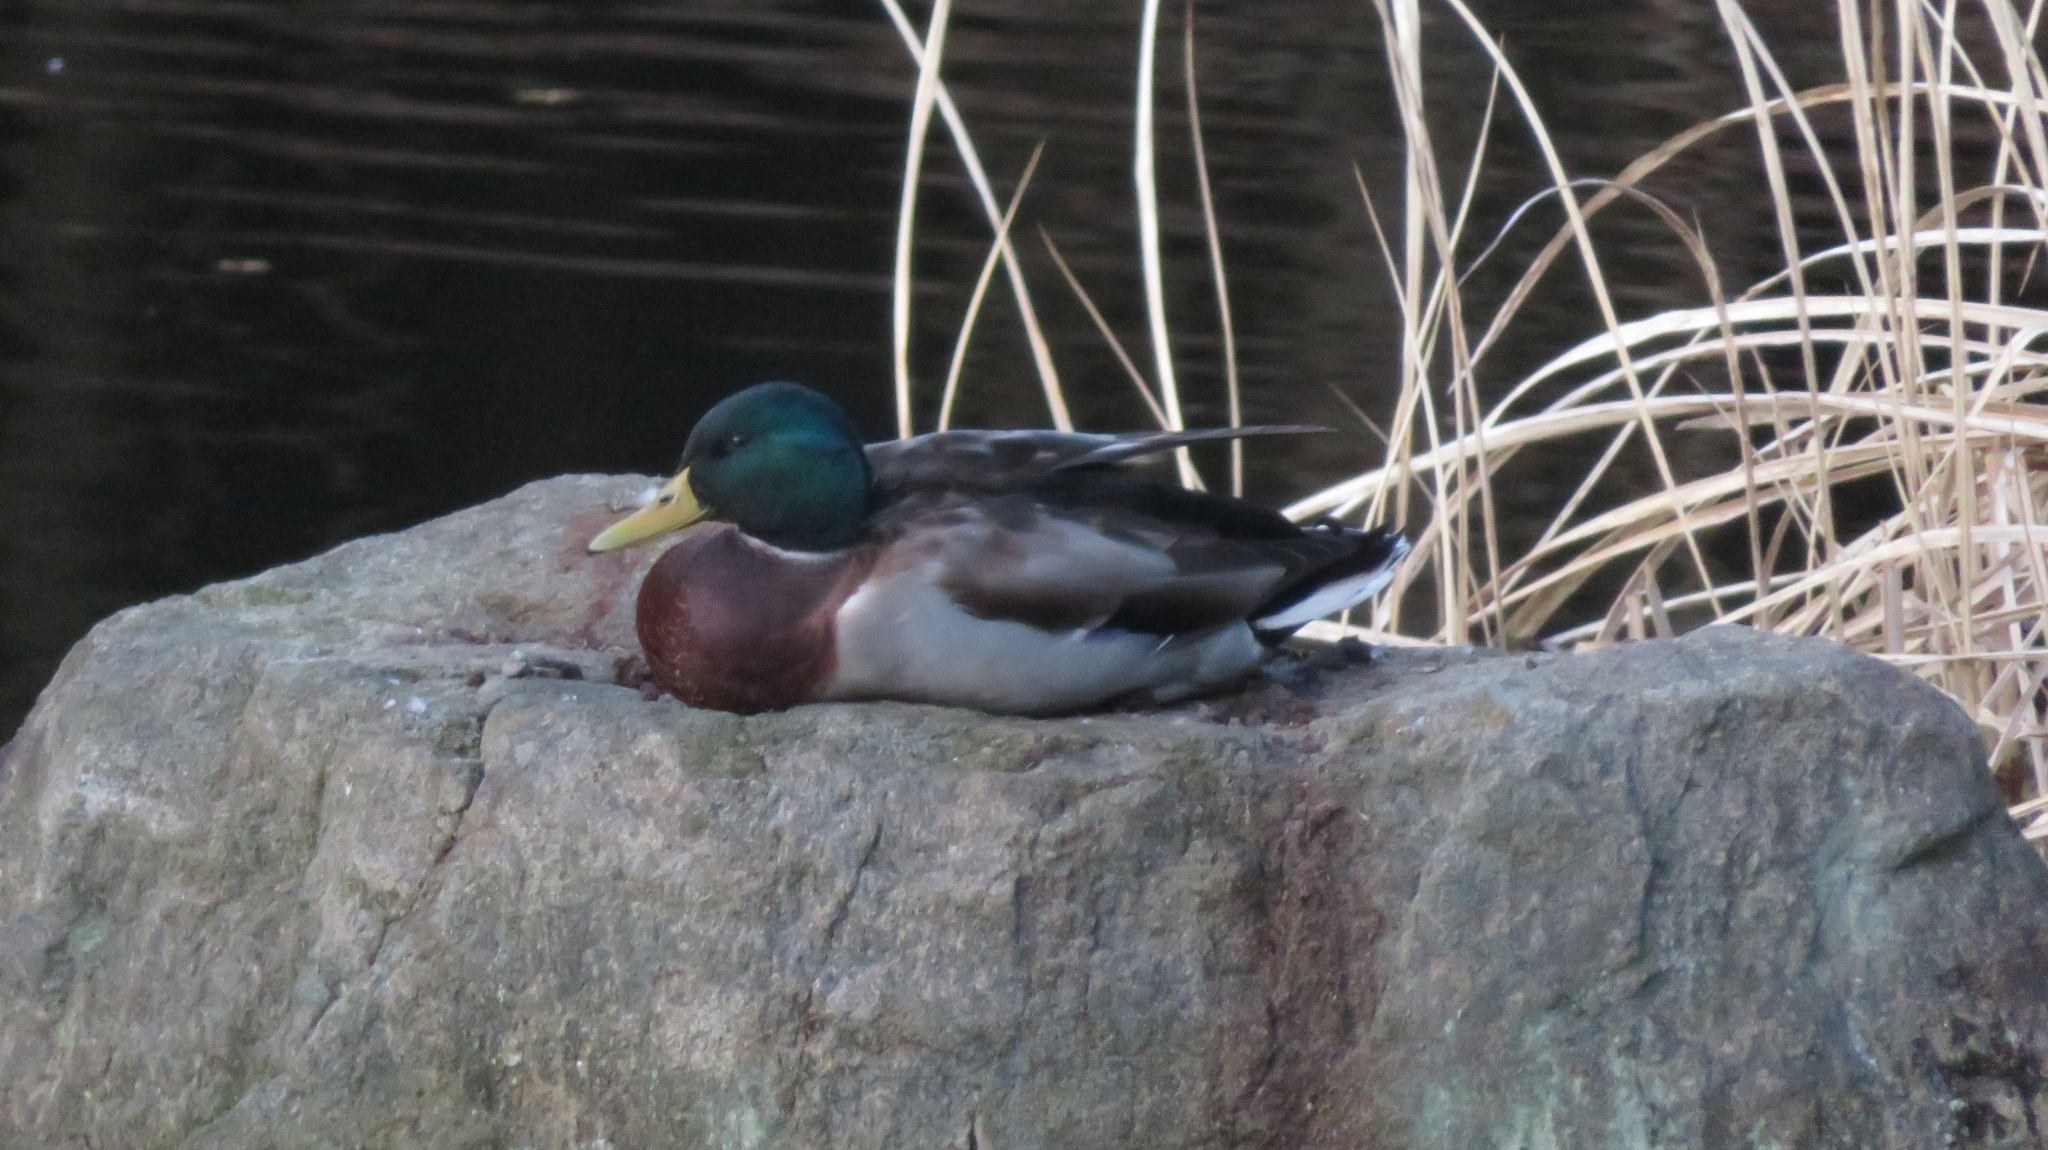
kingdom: Animalia
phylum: Chordata
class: Aves
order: Anseriformes
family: Anatidae
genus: Anas
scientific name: Anas platyrhynchos
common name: Mallard
